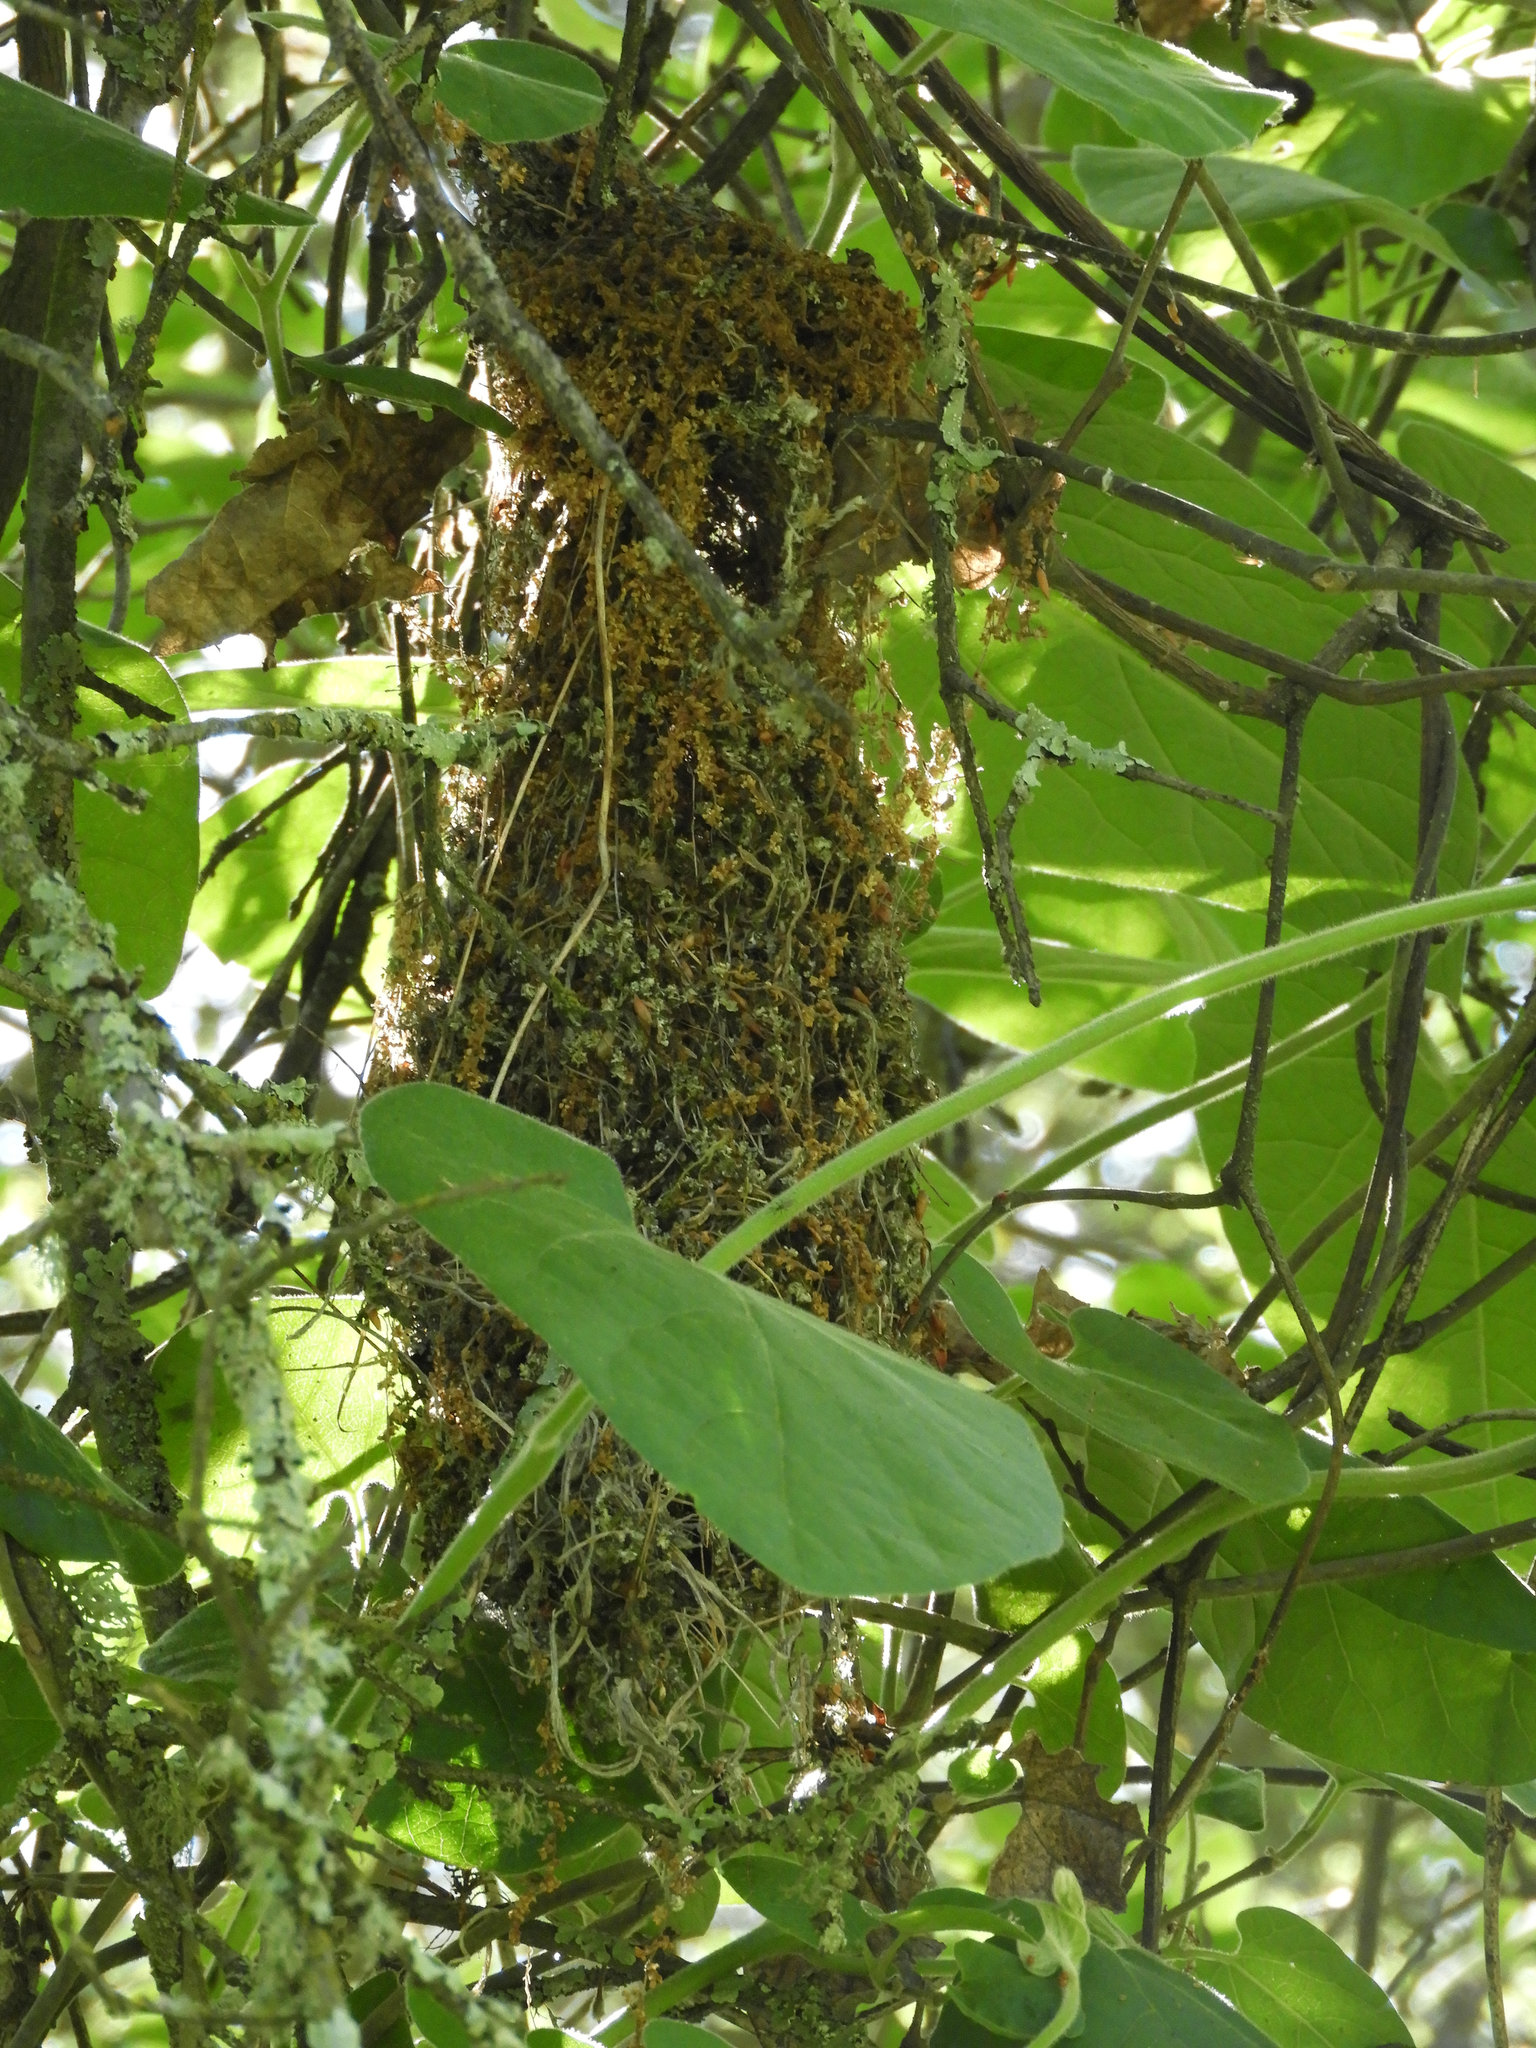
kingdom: Animalia
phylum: Chordata
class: Aves
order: Passeriformes
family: Aegithalidae
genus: Psaltriparus
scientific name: Psaltriparus minimus
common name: American bushtit
